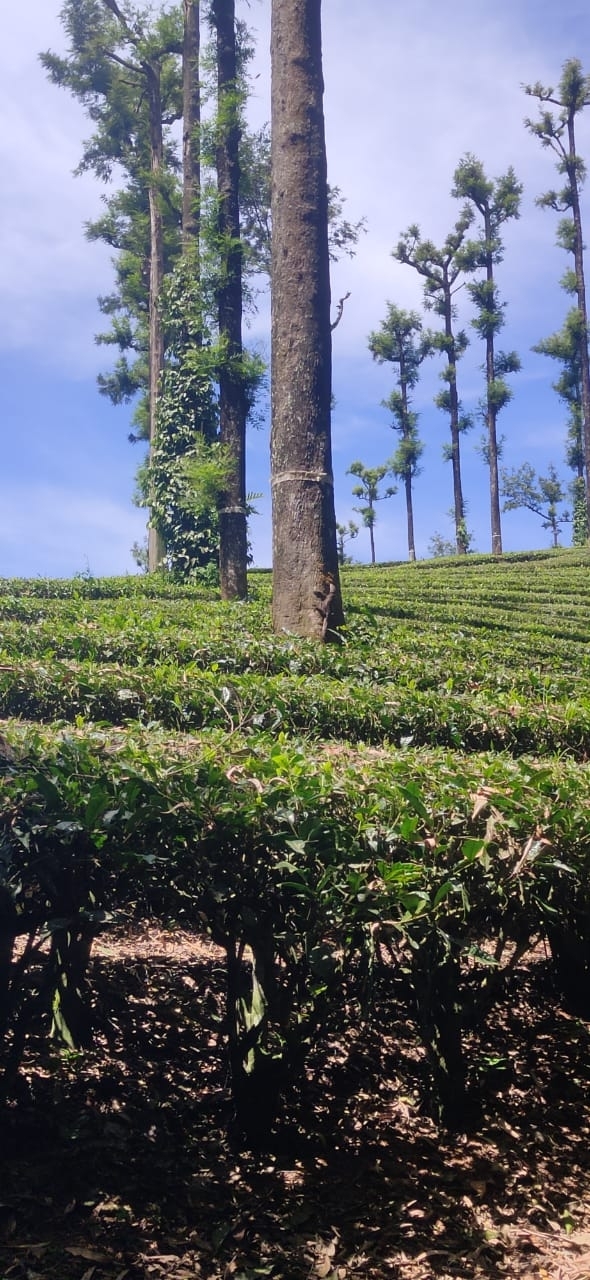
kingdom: Animalia
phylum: Chordata
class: Squamata
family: Varanidae
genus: Varanus
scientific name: Varanus bengalensis
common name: Bengal monitor
